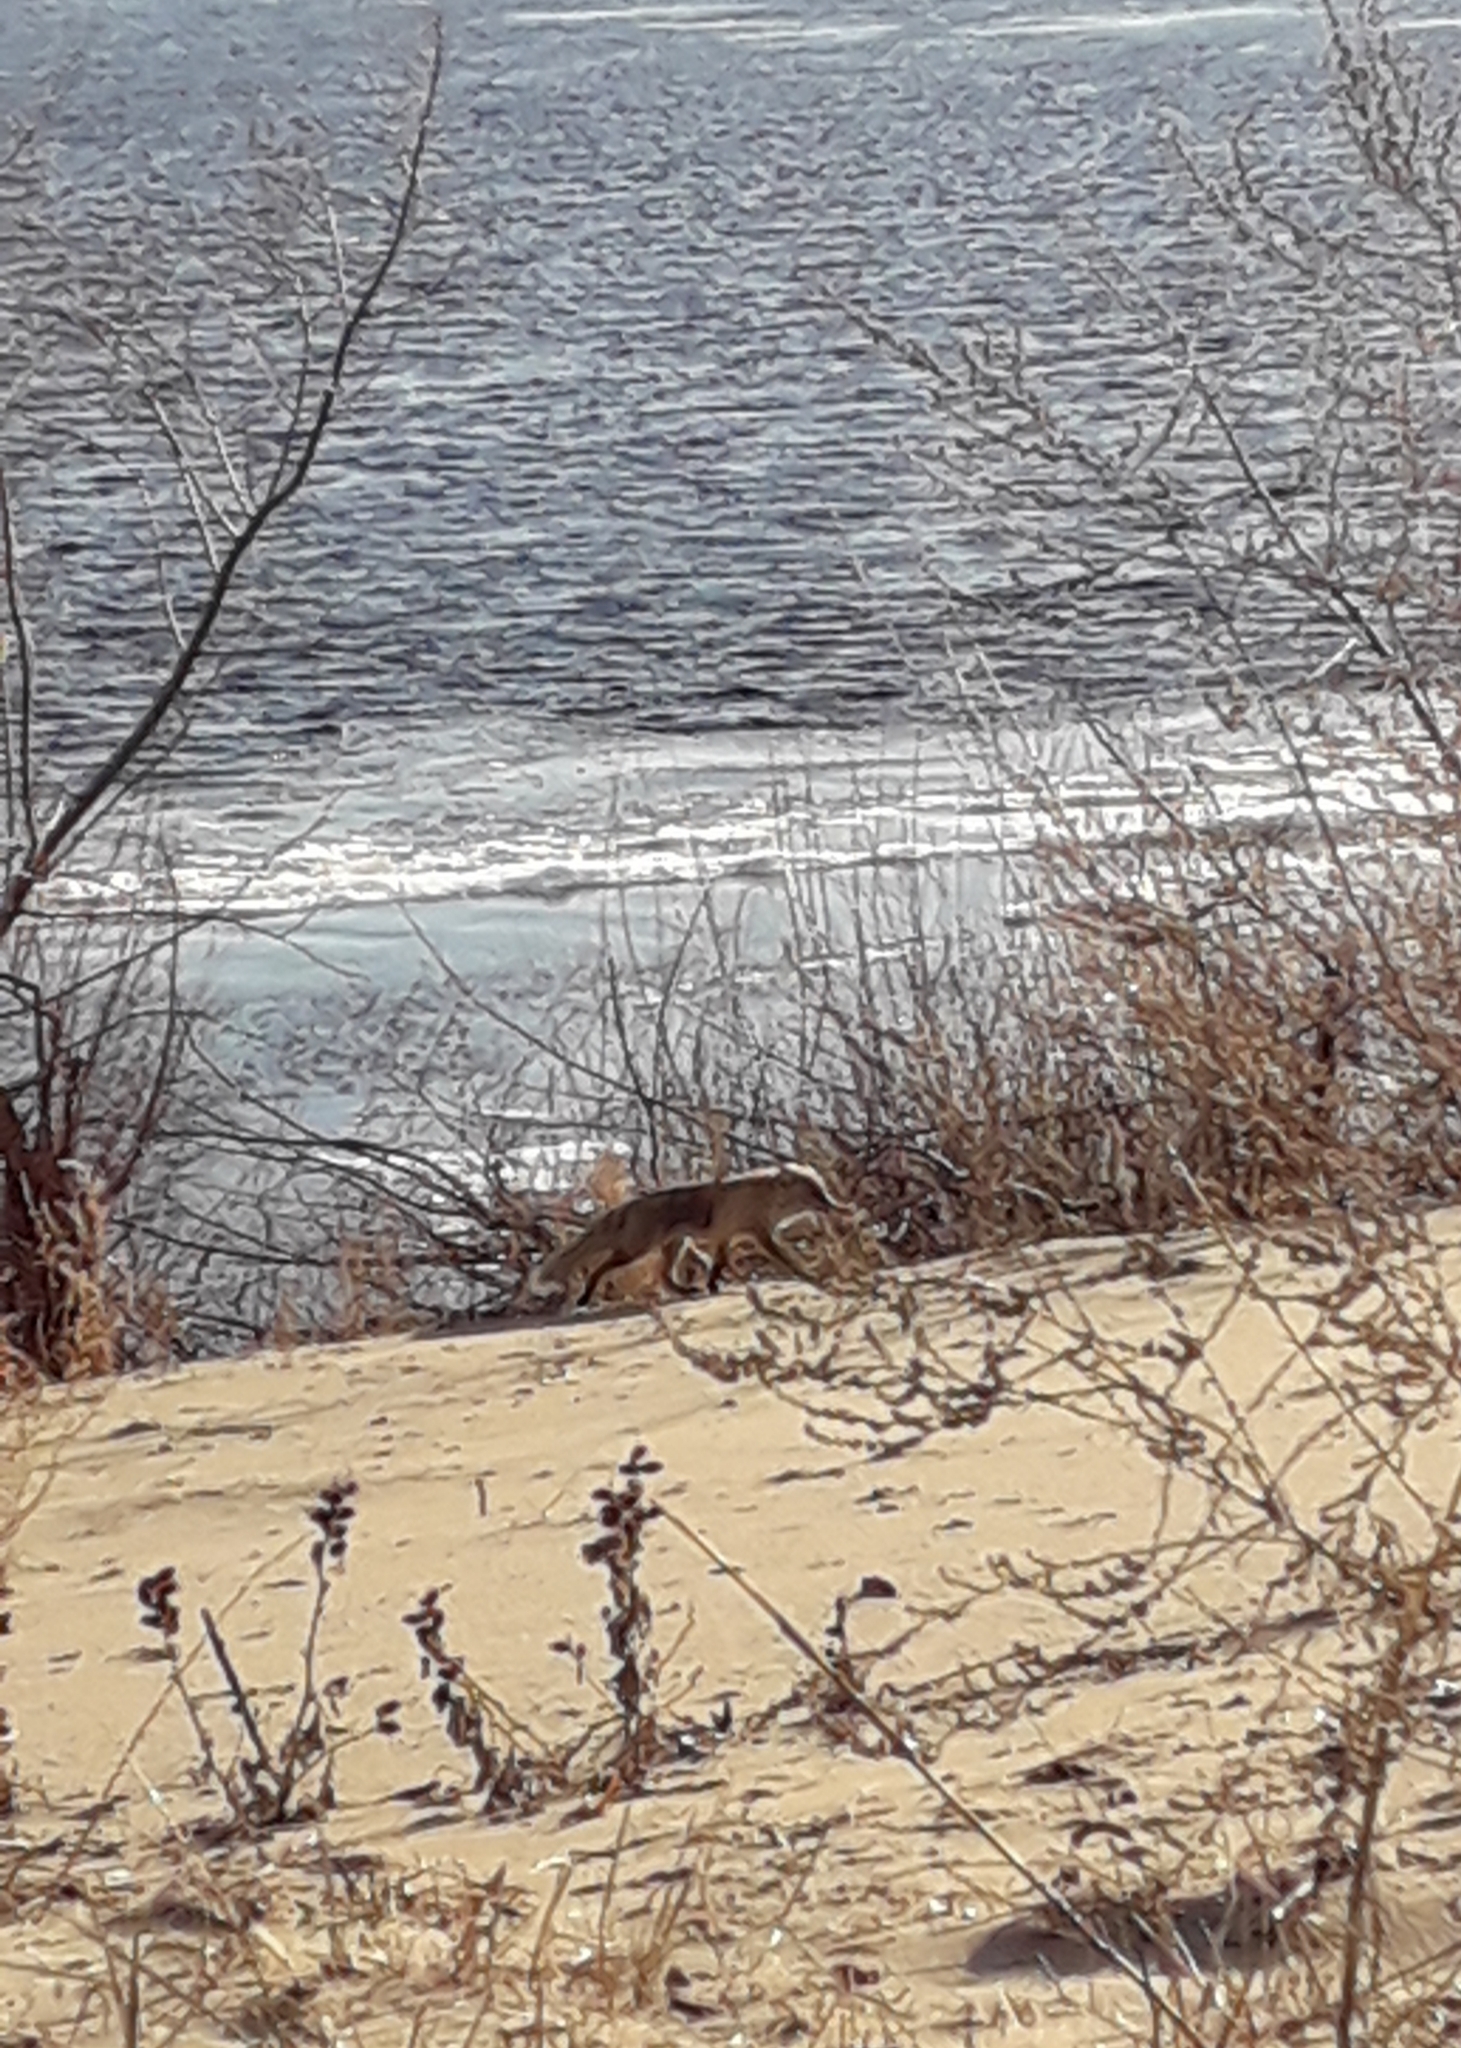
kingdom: Animalia
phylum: Chordata
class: Mammalia
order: Carnivora
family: Canidae
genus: Vulpes
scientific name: Vulpes vulpes
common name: Red fox
